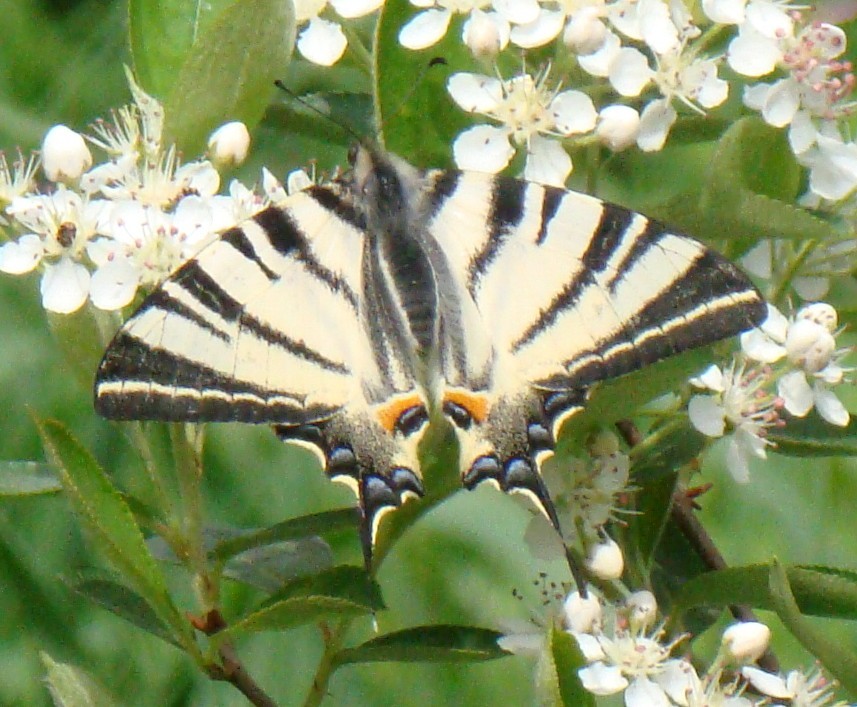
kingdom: Animalia
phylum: Arthropoda
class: Insecta
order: Lepidoptera
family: Papilionidae
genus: Iphiclides
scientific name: Iphiclides podalirius
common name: Scarce swallowtail
